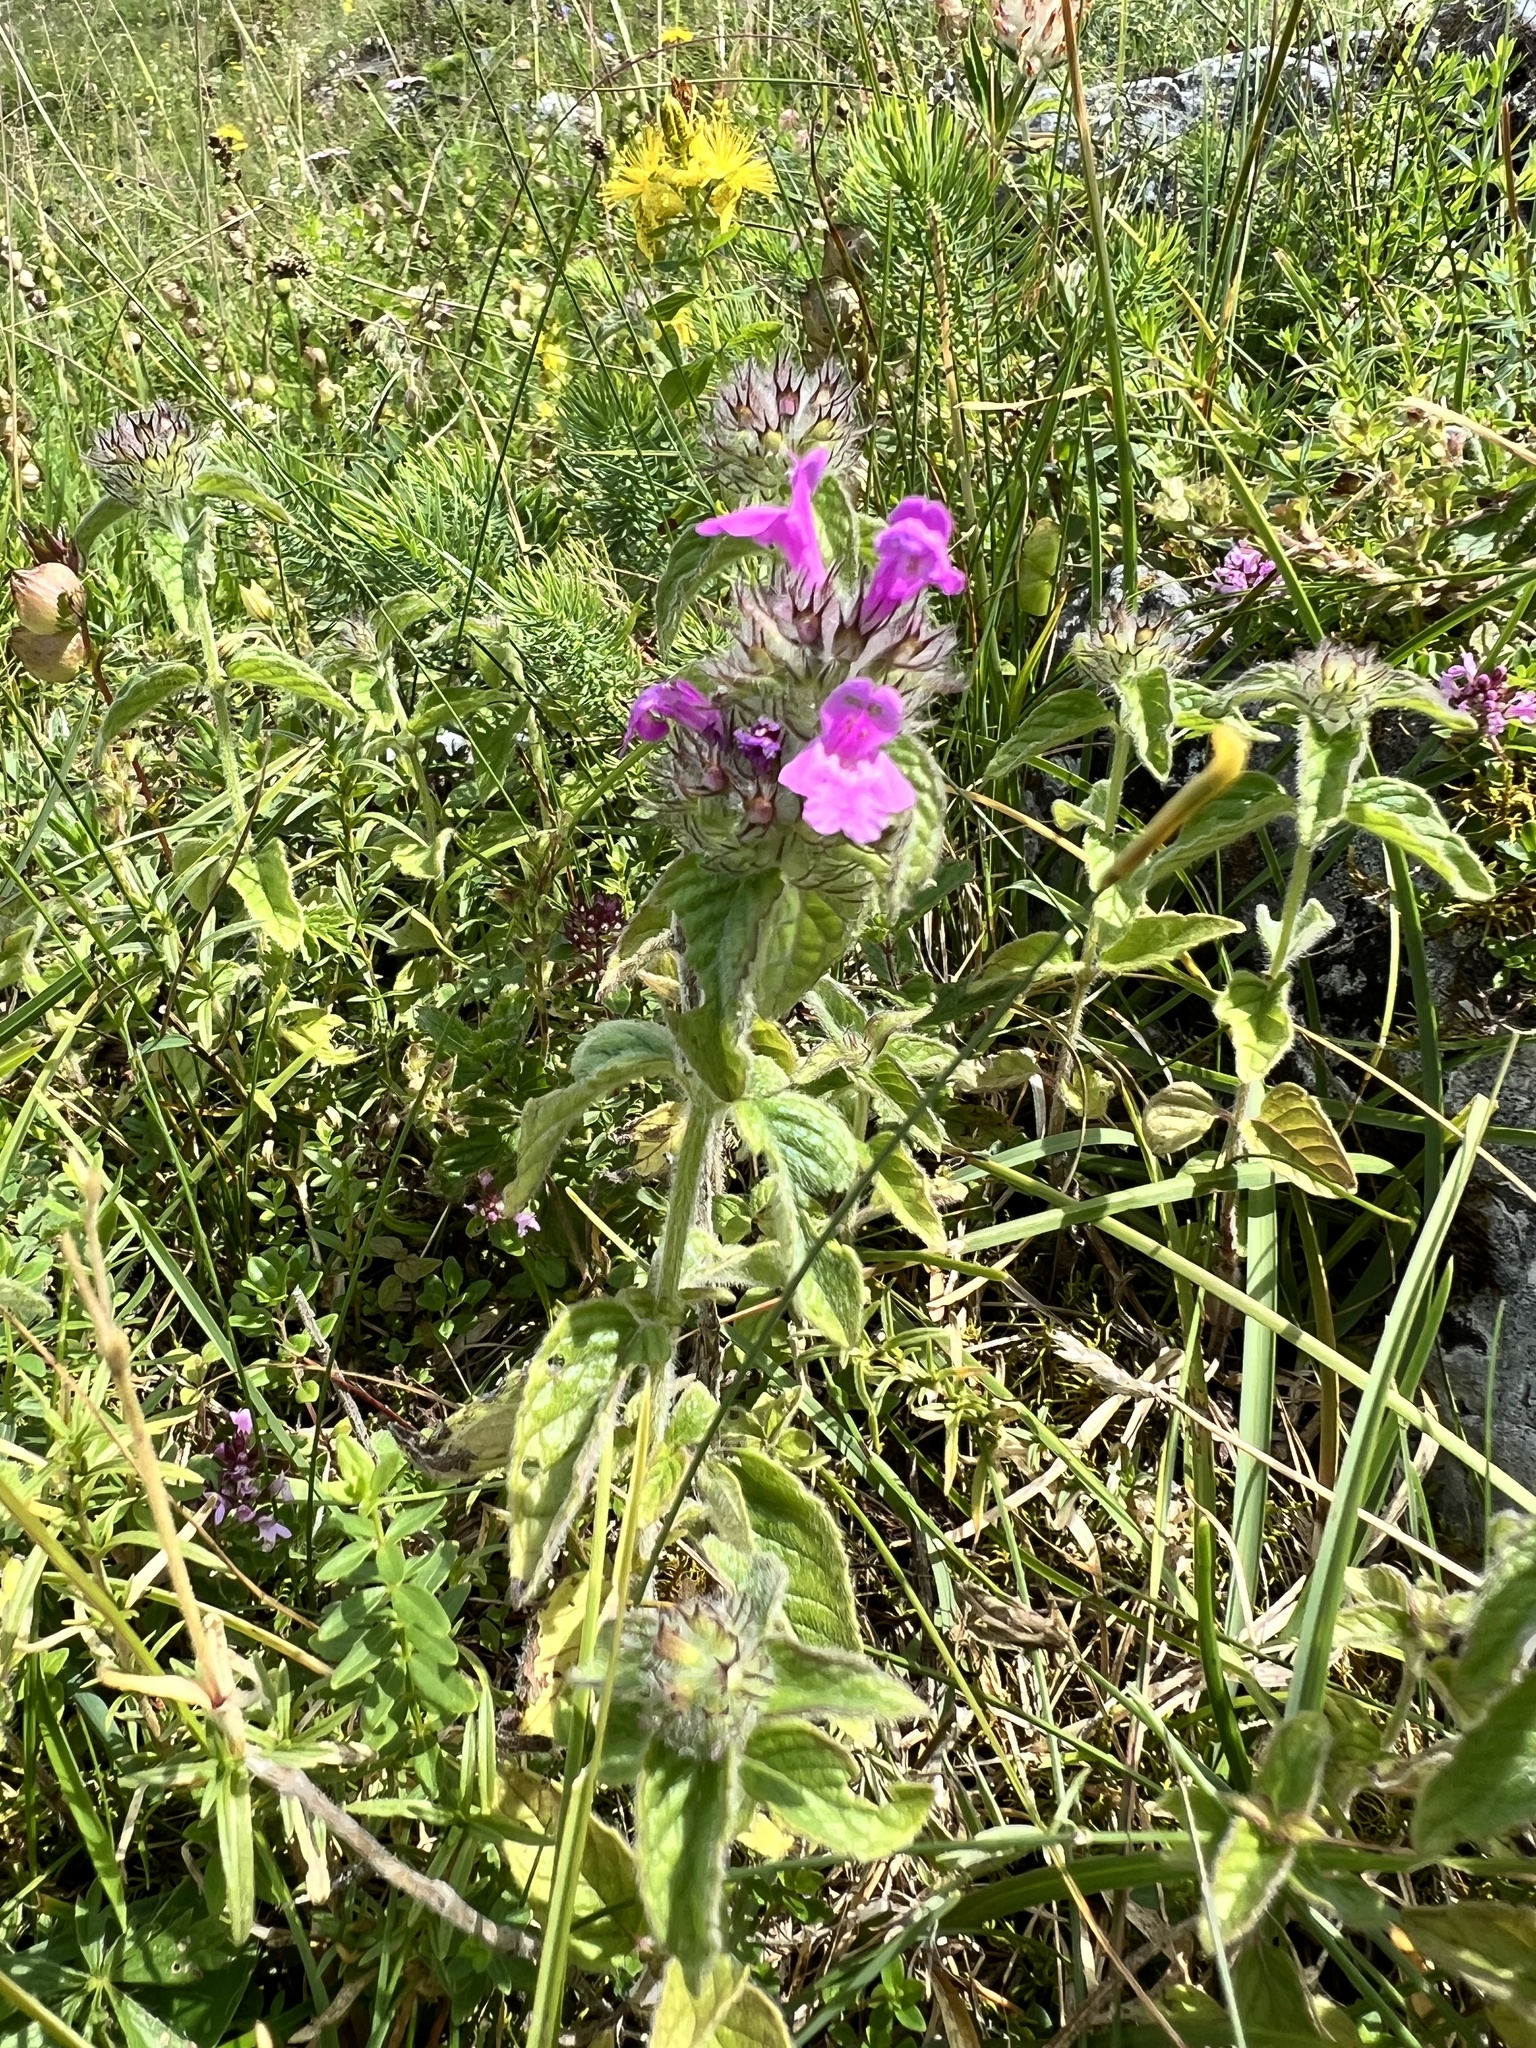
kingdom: Plantae
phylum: Tracheophyta
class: Magnoliopsida
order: Lamiales
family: Lamiaceae
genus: Clinopodium
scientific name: Clinopodium vulgare
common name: Wild basil
